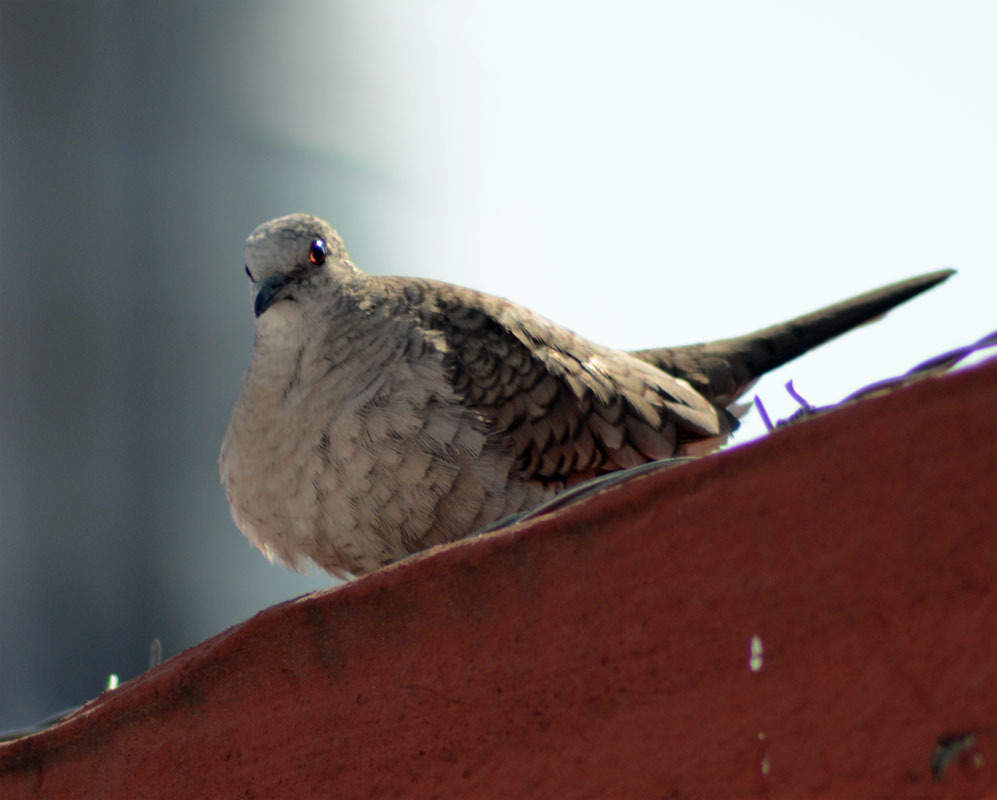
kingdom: Animalia
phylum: Chordata
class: Aves
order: Columbiformes
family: Columbidae
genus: Columbina
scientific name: Columbina inca
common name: Inca dove
